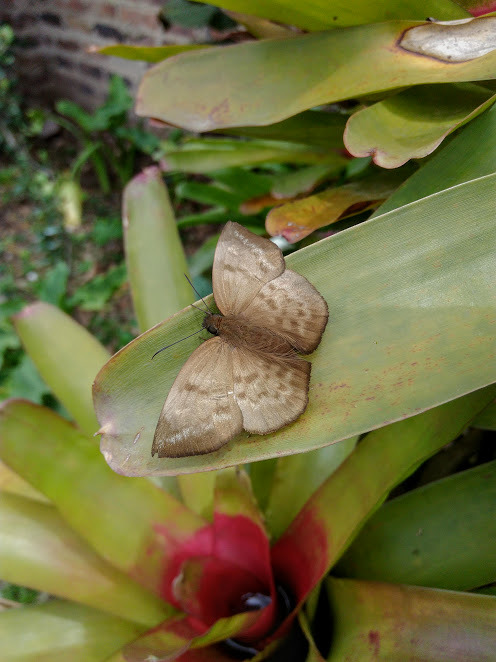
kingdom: Animalia
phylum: Arthropoda
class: Insecta
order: Lepidoptera
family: Hesperiidae
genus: Achlyodes
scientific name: Achlyodes pallida
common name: Pale sicklewing
